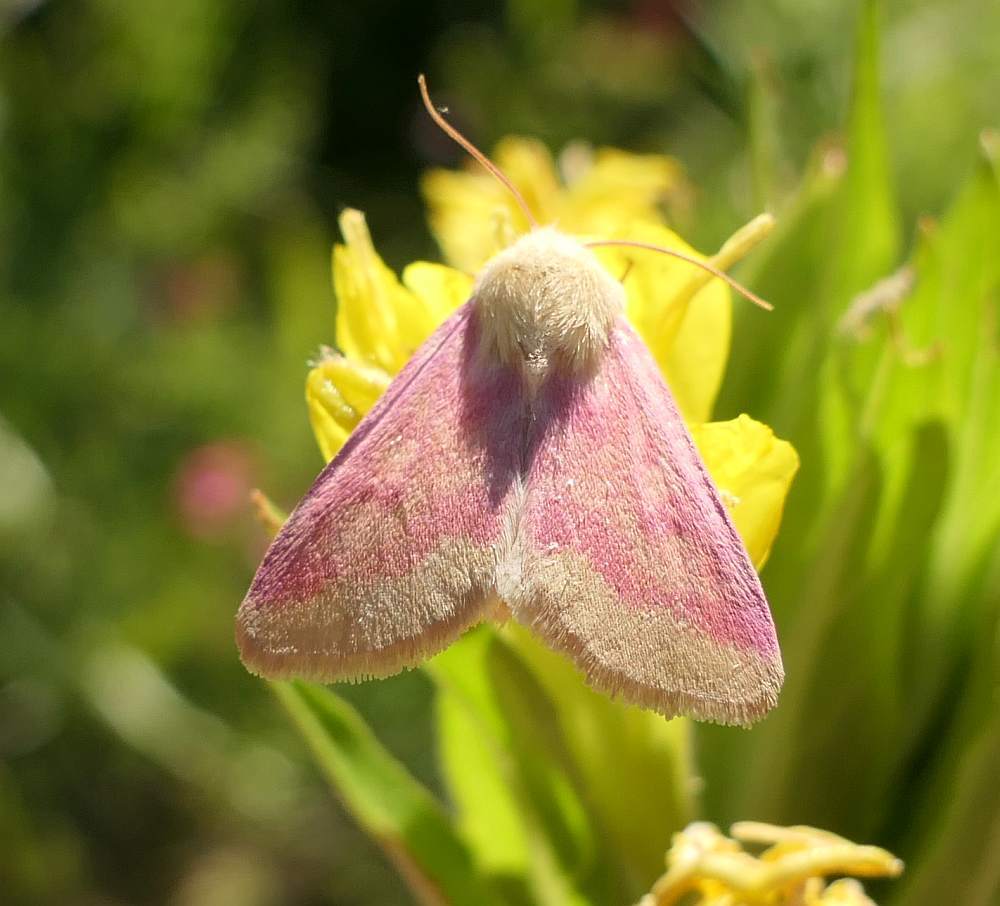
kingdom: Animalia
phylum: Arthropoda
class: Insecta
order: Lepidoptera
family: Noctuidae
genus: Schinia
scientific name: Schinia florida
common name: Primrose moth
